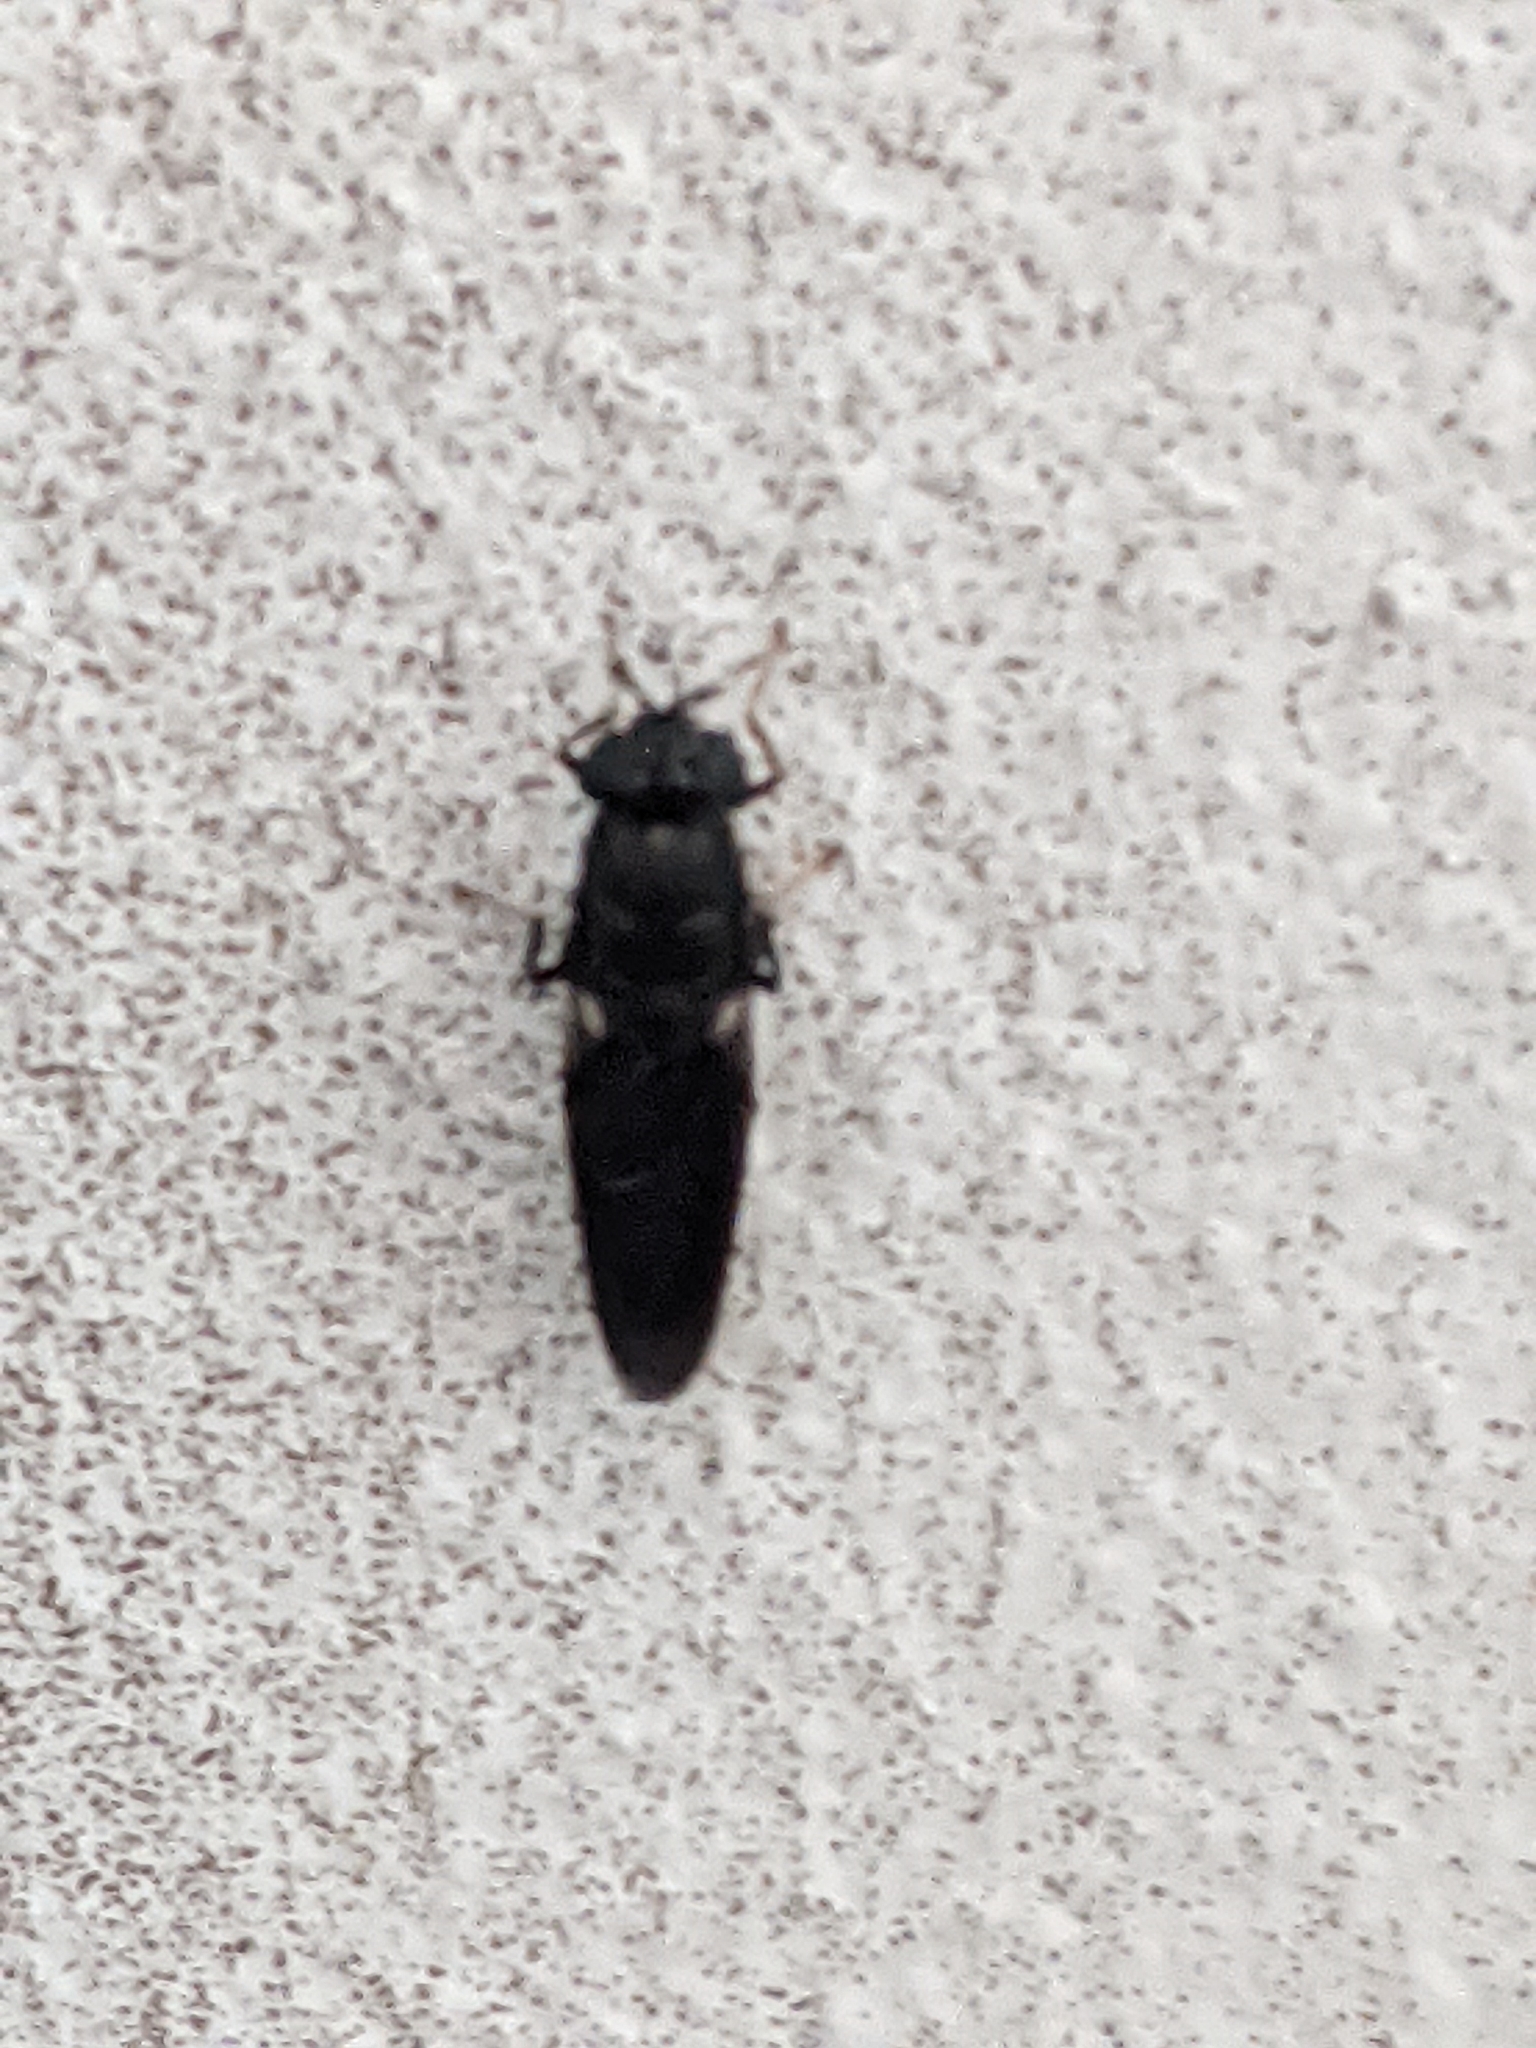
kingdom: Animalia
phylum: Arthropoda
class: Insecta
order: Diptera
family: Stratiomyidae
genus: Hermetia
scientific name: Hermetia illucens
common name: Black soldier fly
